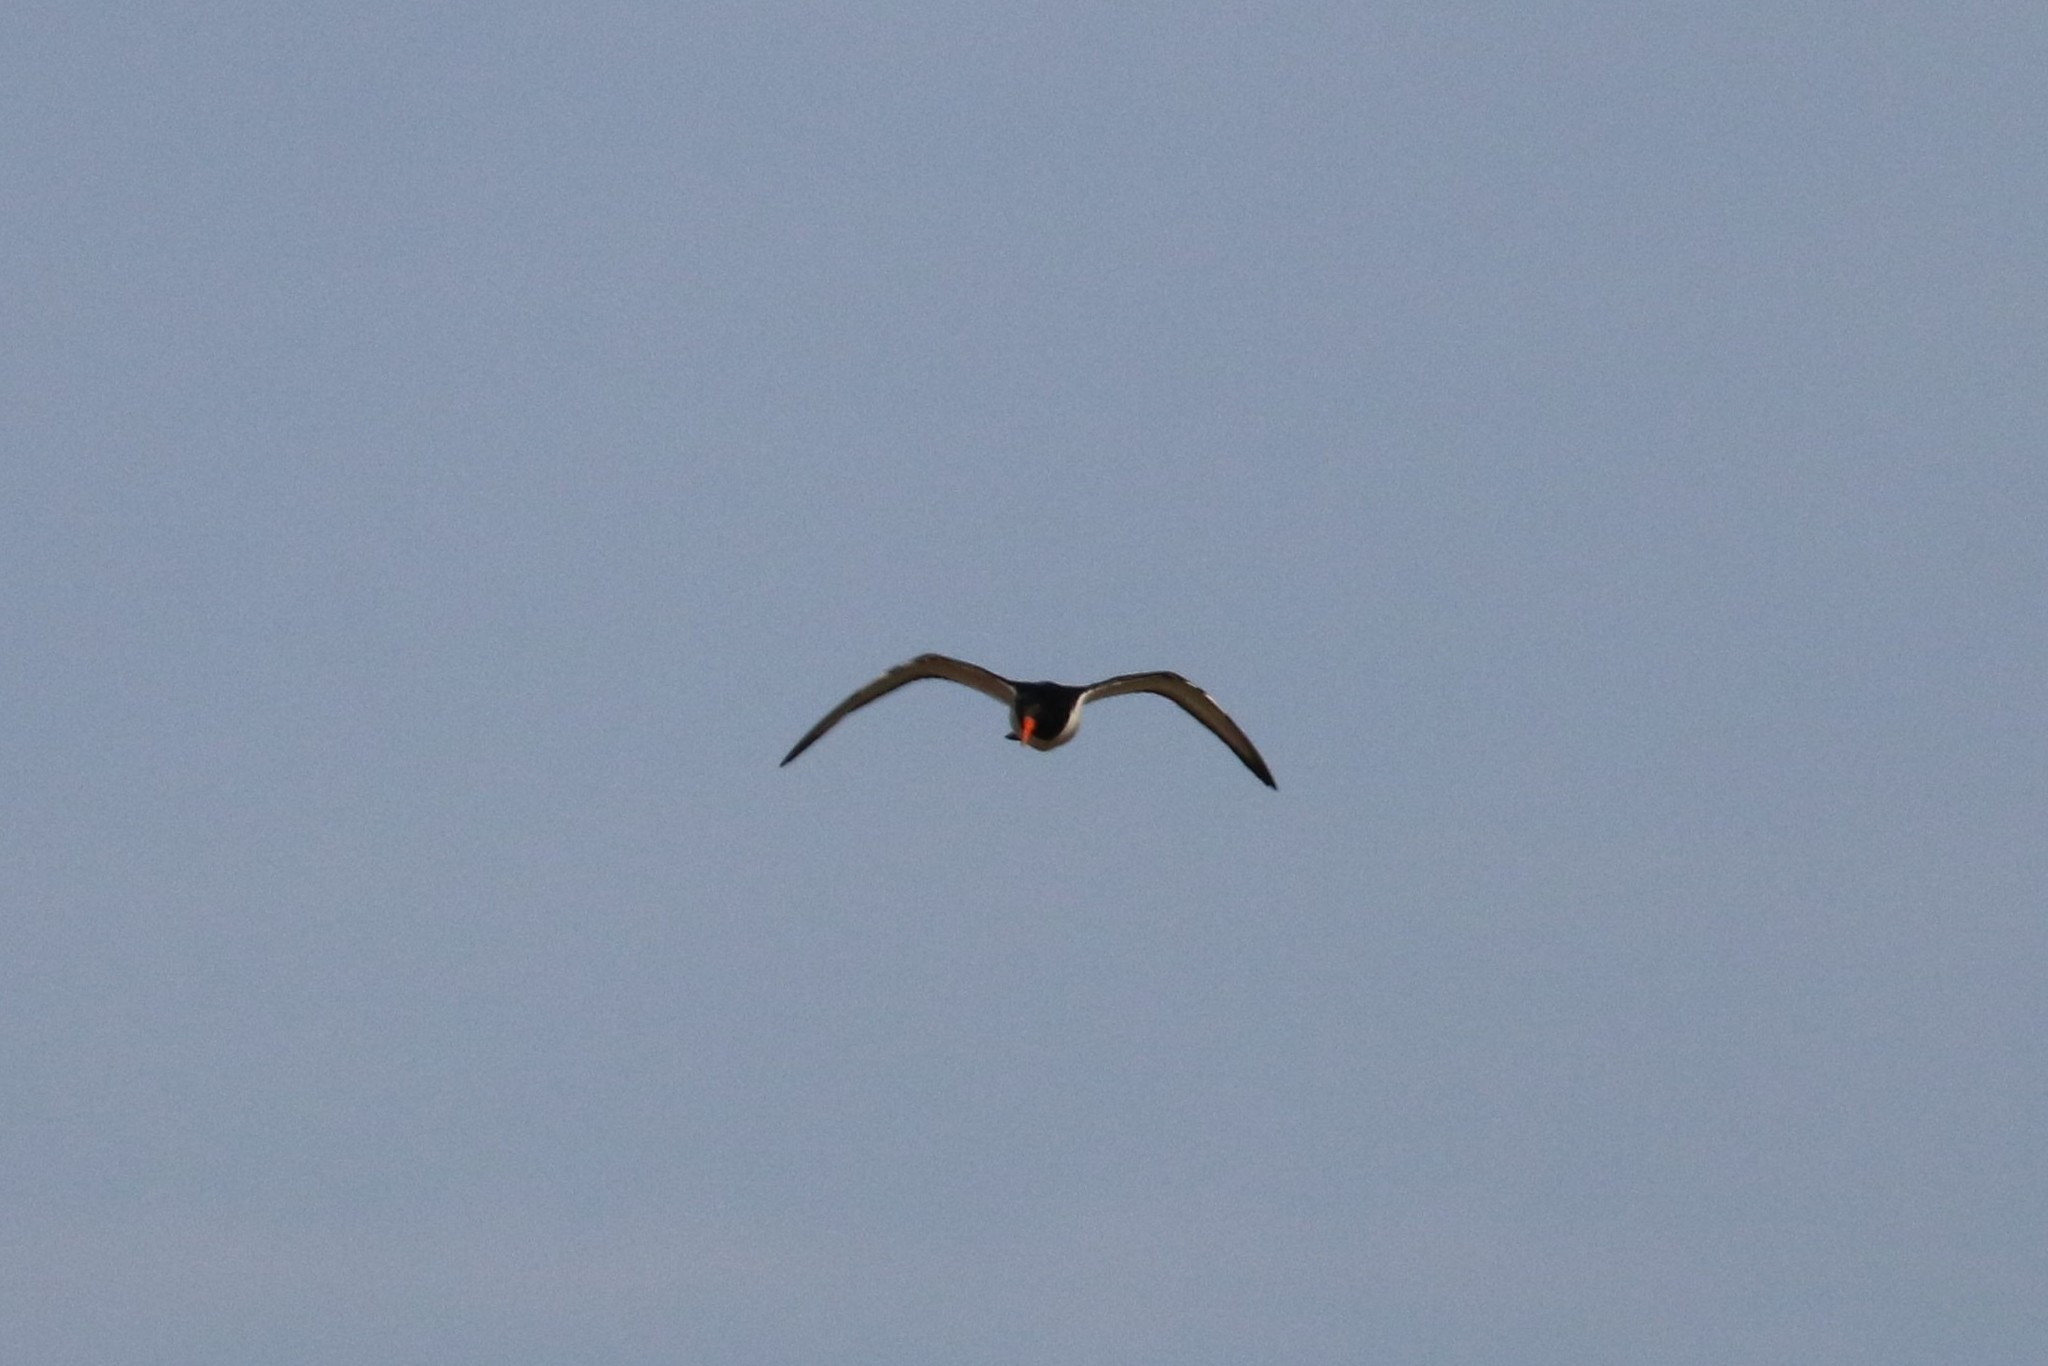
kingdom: Animalia
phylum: Chordata
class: Aves
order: Charadriiformes
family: Haematopodidae
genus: Haematopus
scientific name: Haematopus ostralegus
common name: Eurasian oystercatcher
